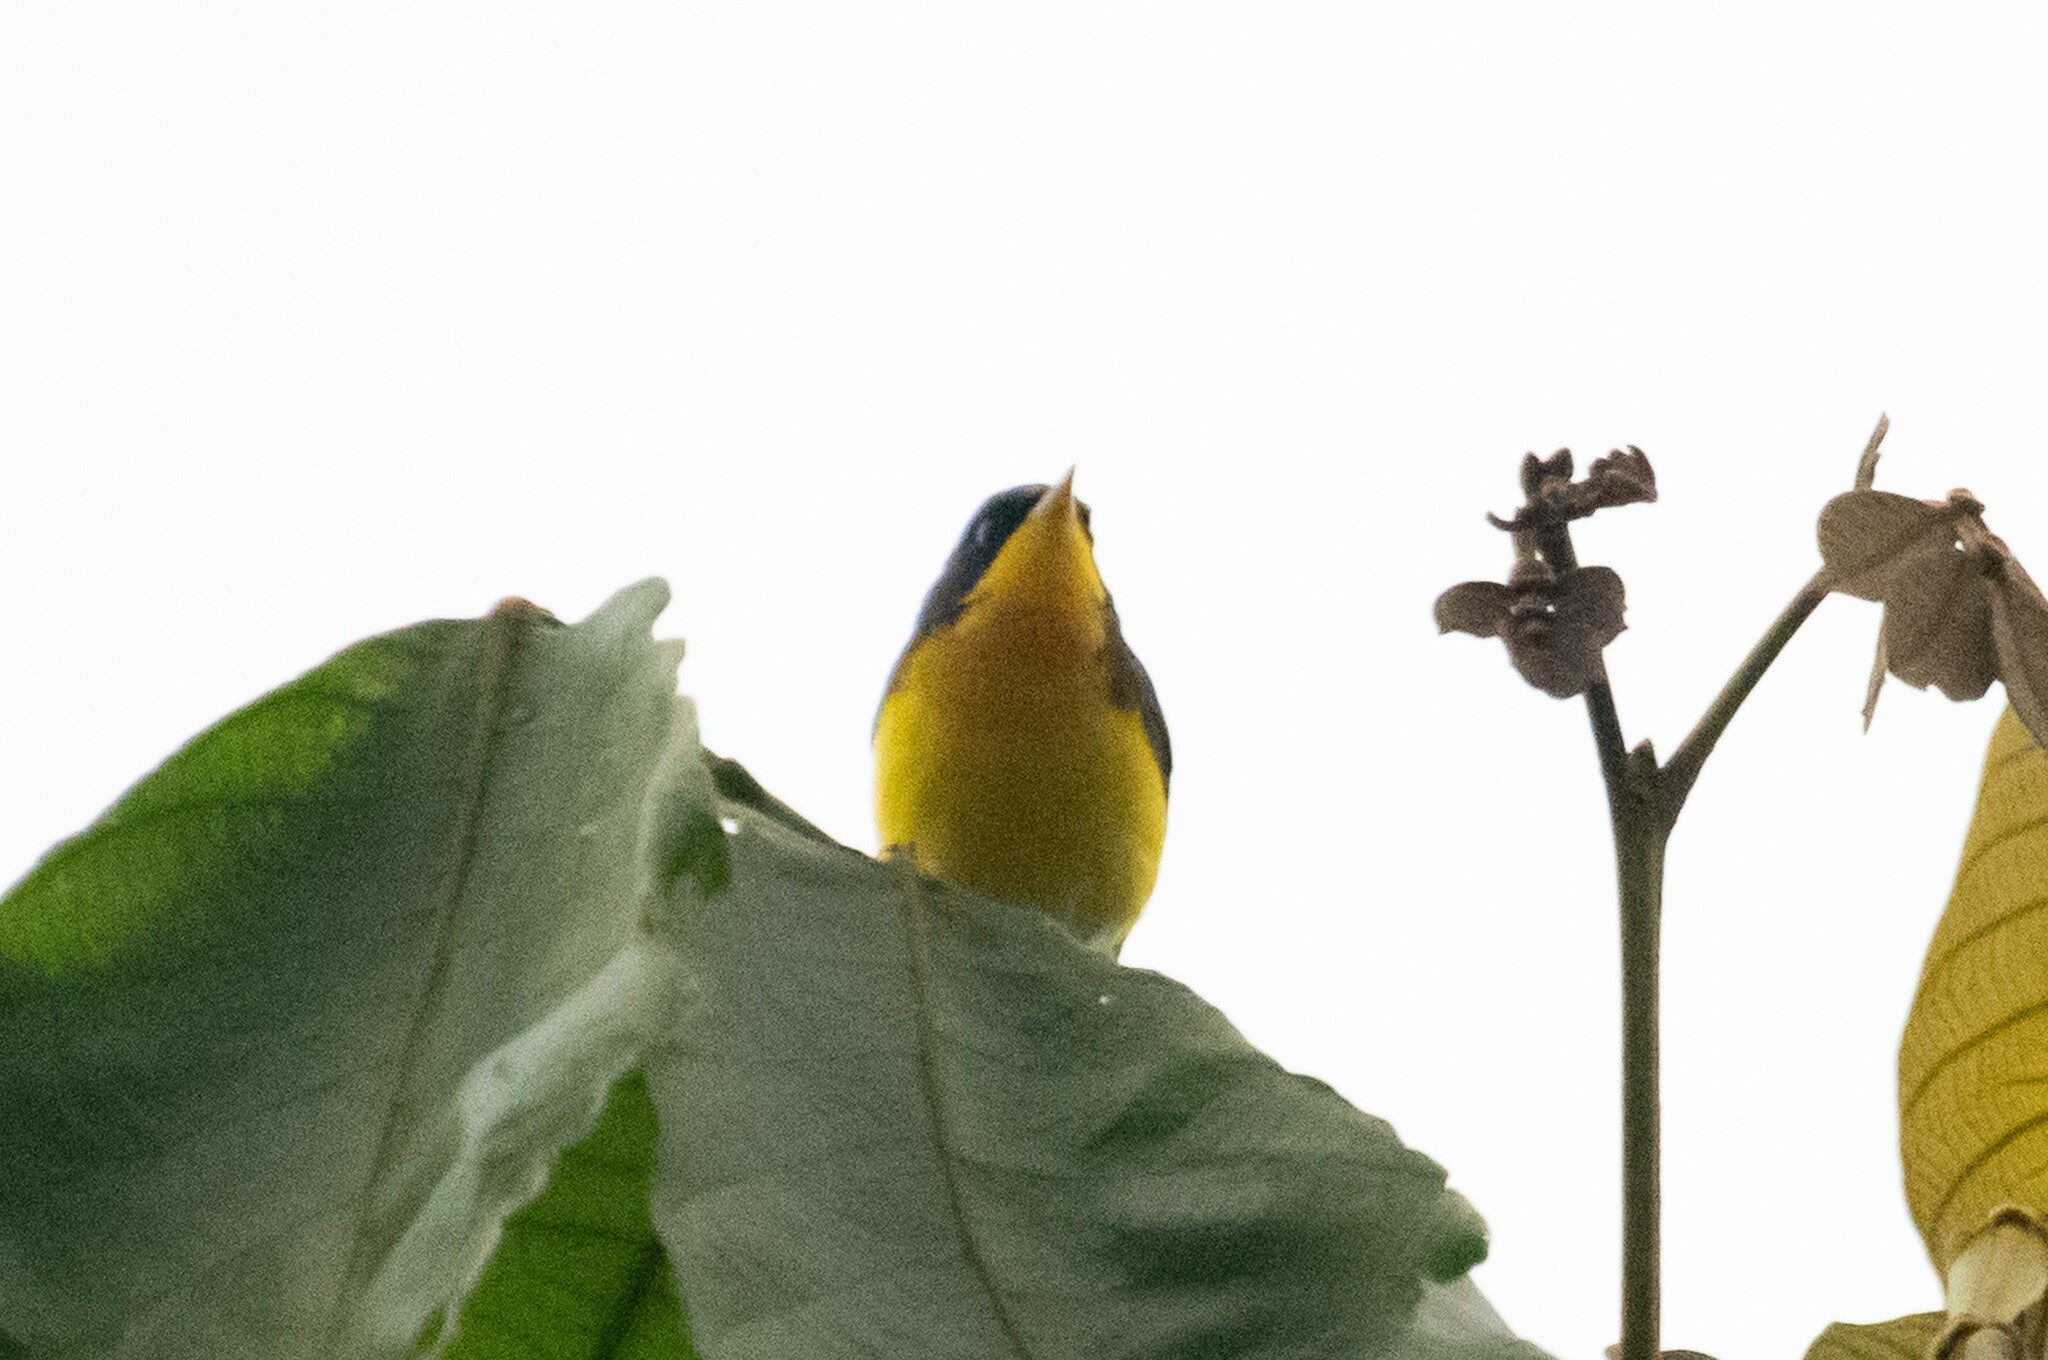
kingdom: Animalia
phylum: Chordata
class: Aves
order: Passeriformes
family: Parulidae
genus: Setophaga
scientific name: Setophaga pitiayumi
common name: Tropical parula
